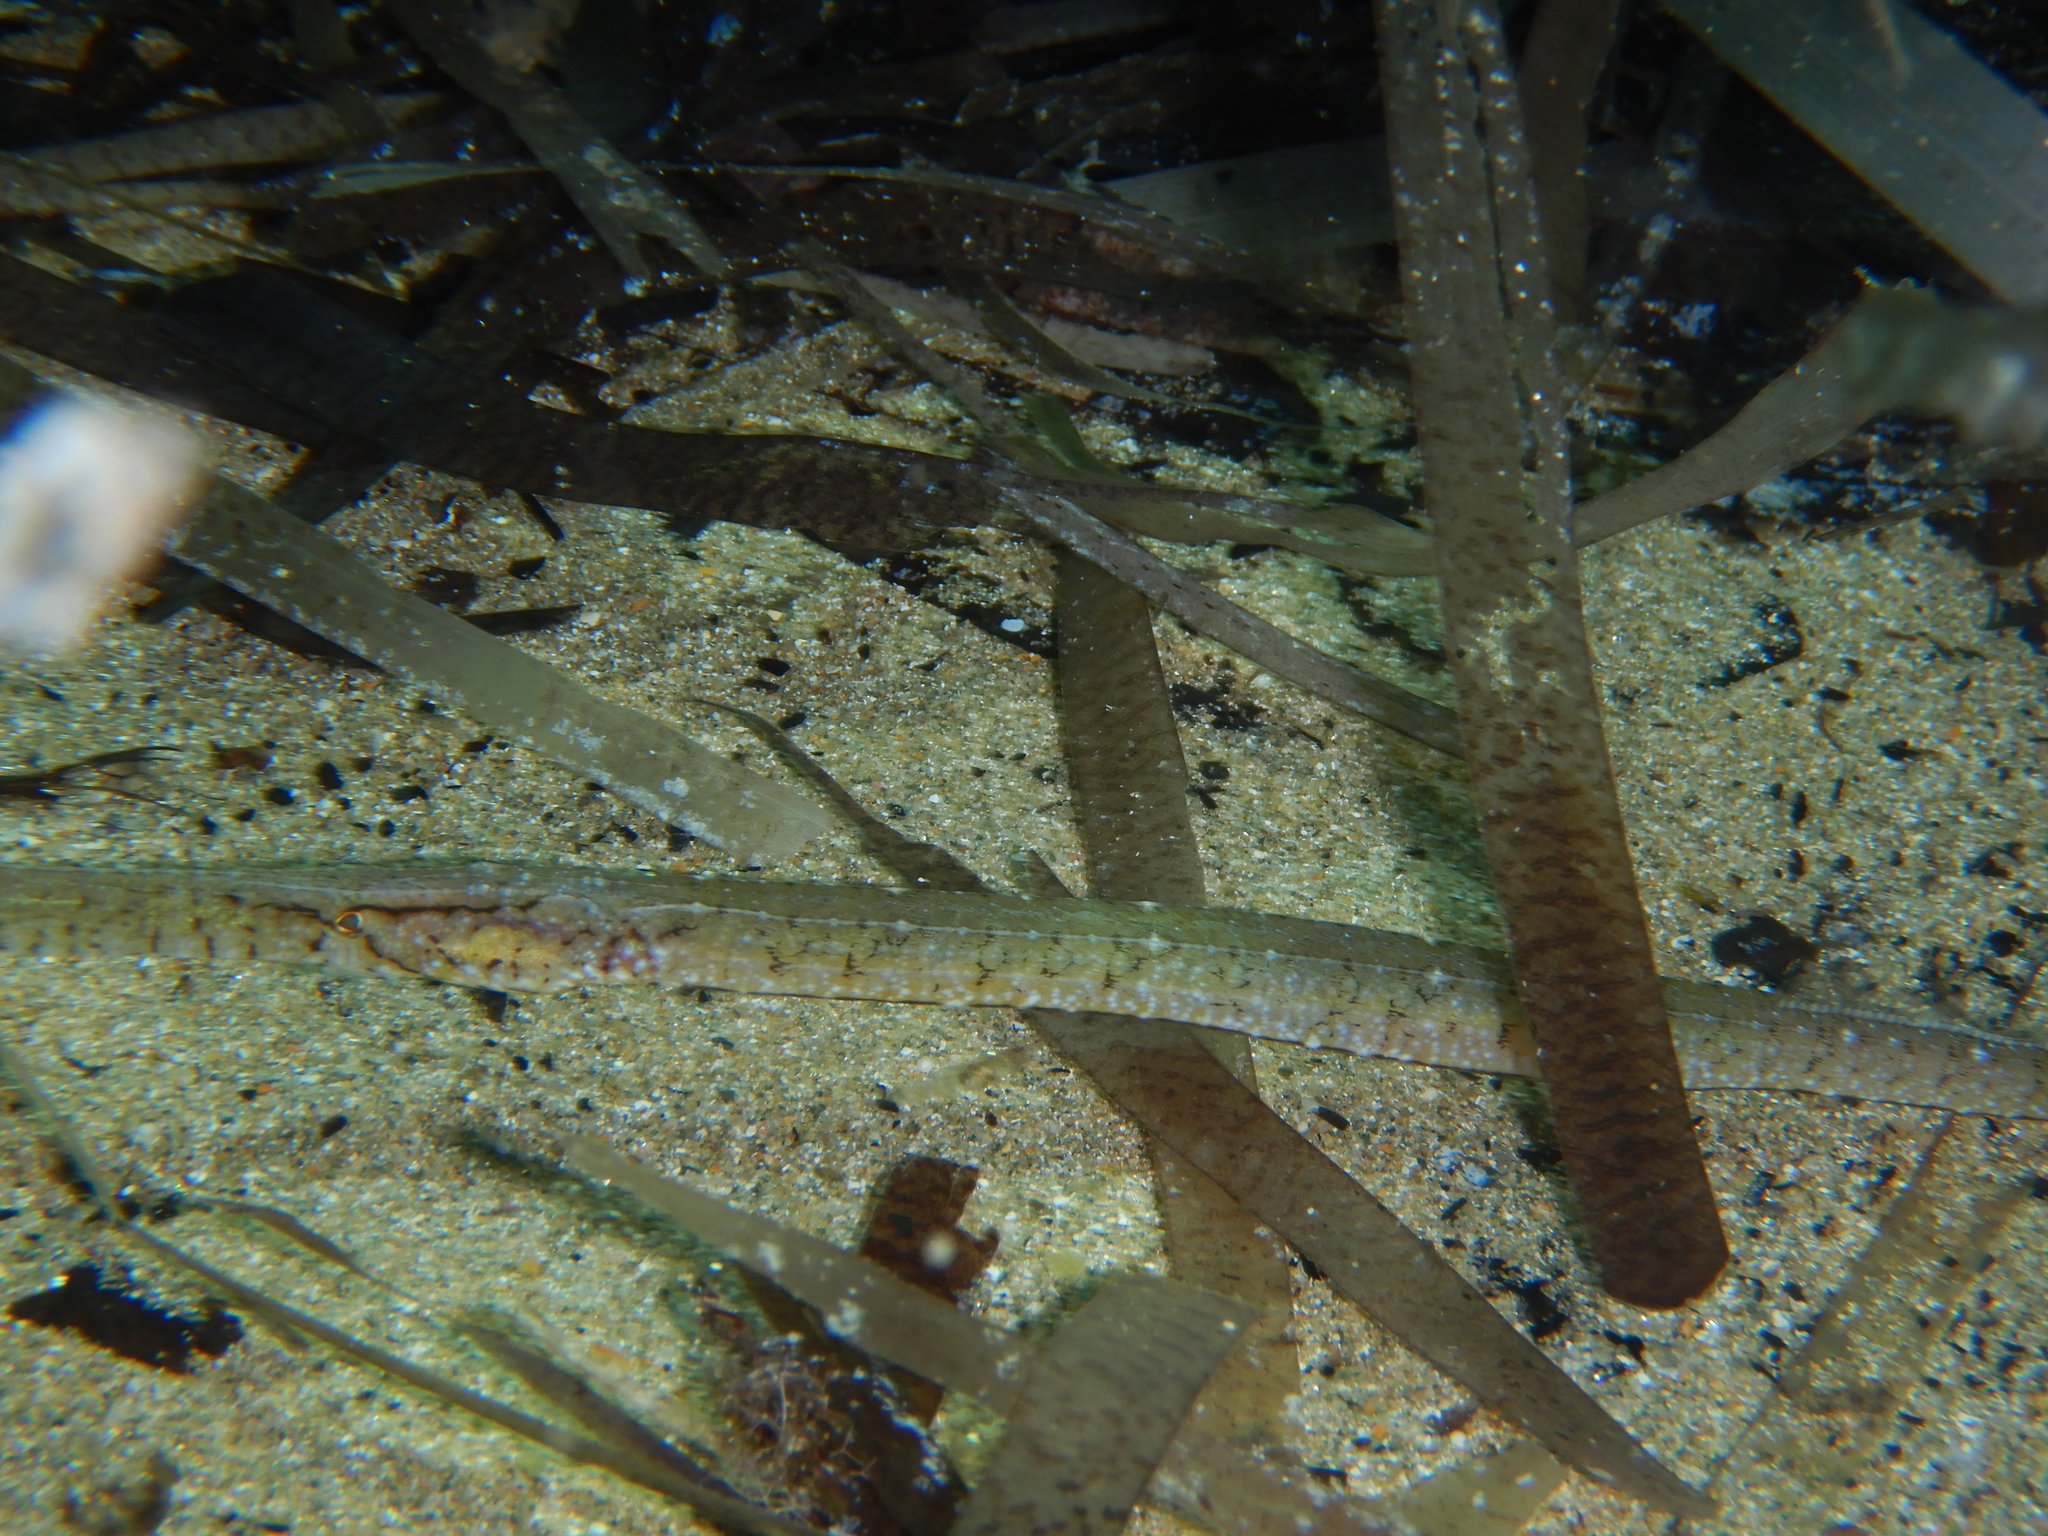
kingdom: Animalia
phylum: Chordata
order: Syngnathiformes
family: Syngnathidae
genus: Syngnathus
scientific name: Syngnathus typhle
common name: Deep-snouted pipefish
